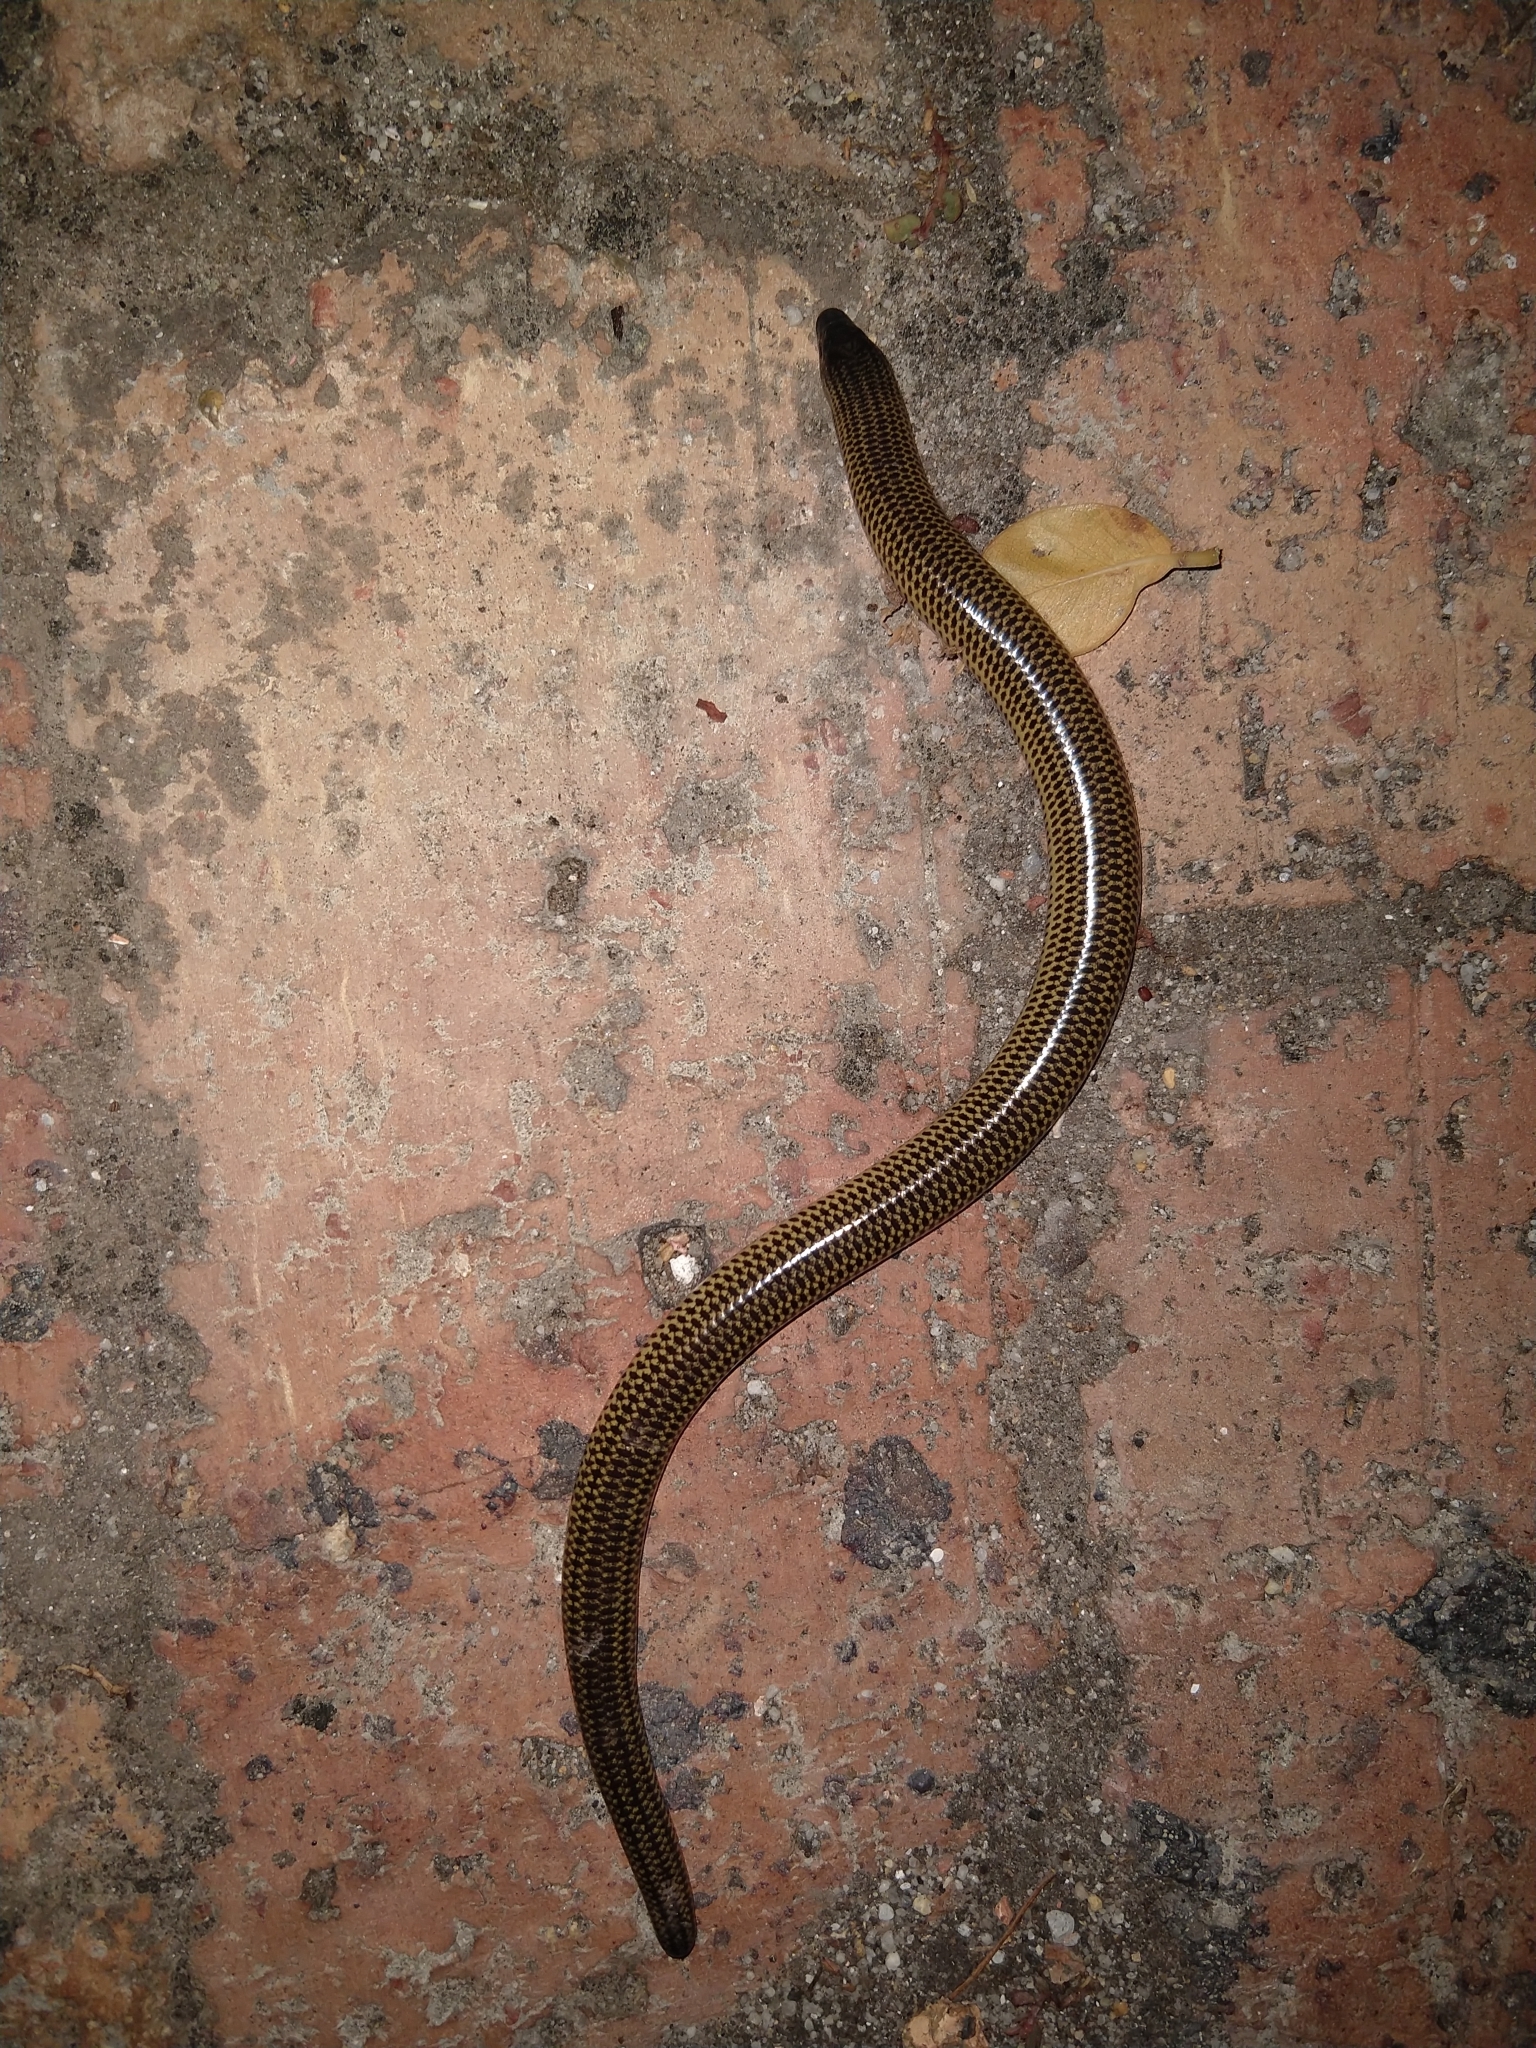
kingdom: Animalia
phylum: Chordata
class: Squamata
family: Scincidae
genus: Acontias
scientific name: Acontias meleagris
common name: Cape legless skink
